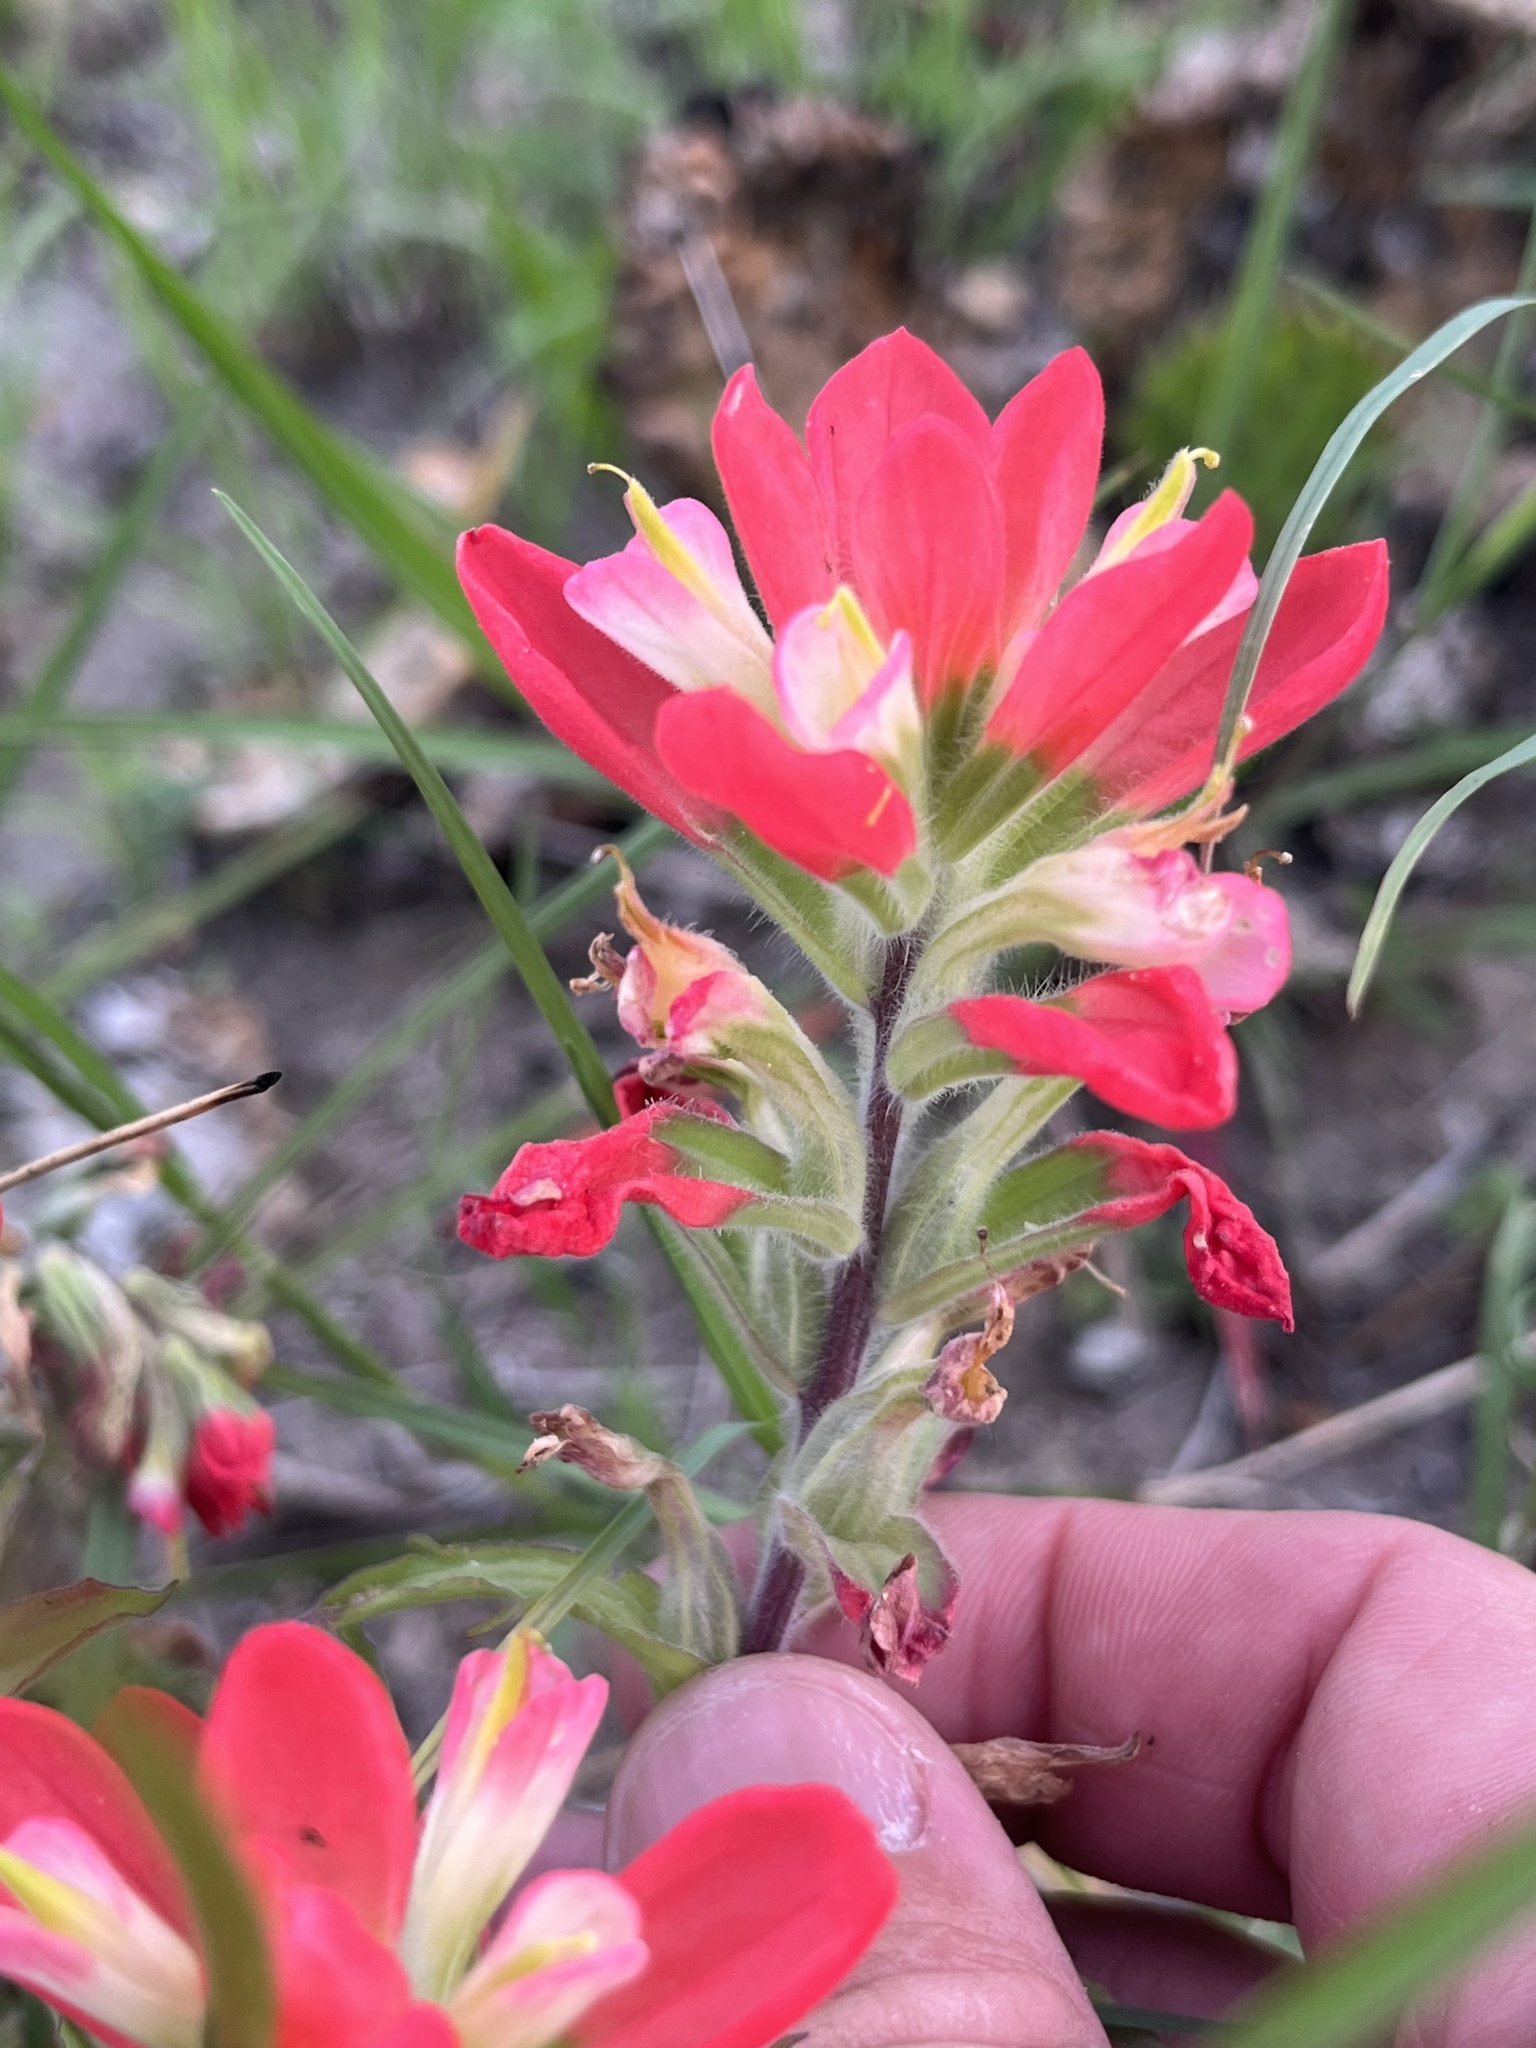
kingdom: Plantae
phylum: Tracheophyta
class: Magnoliopsida
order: Lamiales
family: Orobanchaceae
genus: Castilleja
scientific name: Castilleja indivisa
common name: Texas paintbrush
